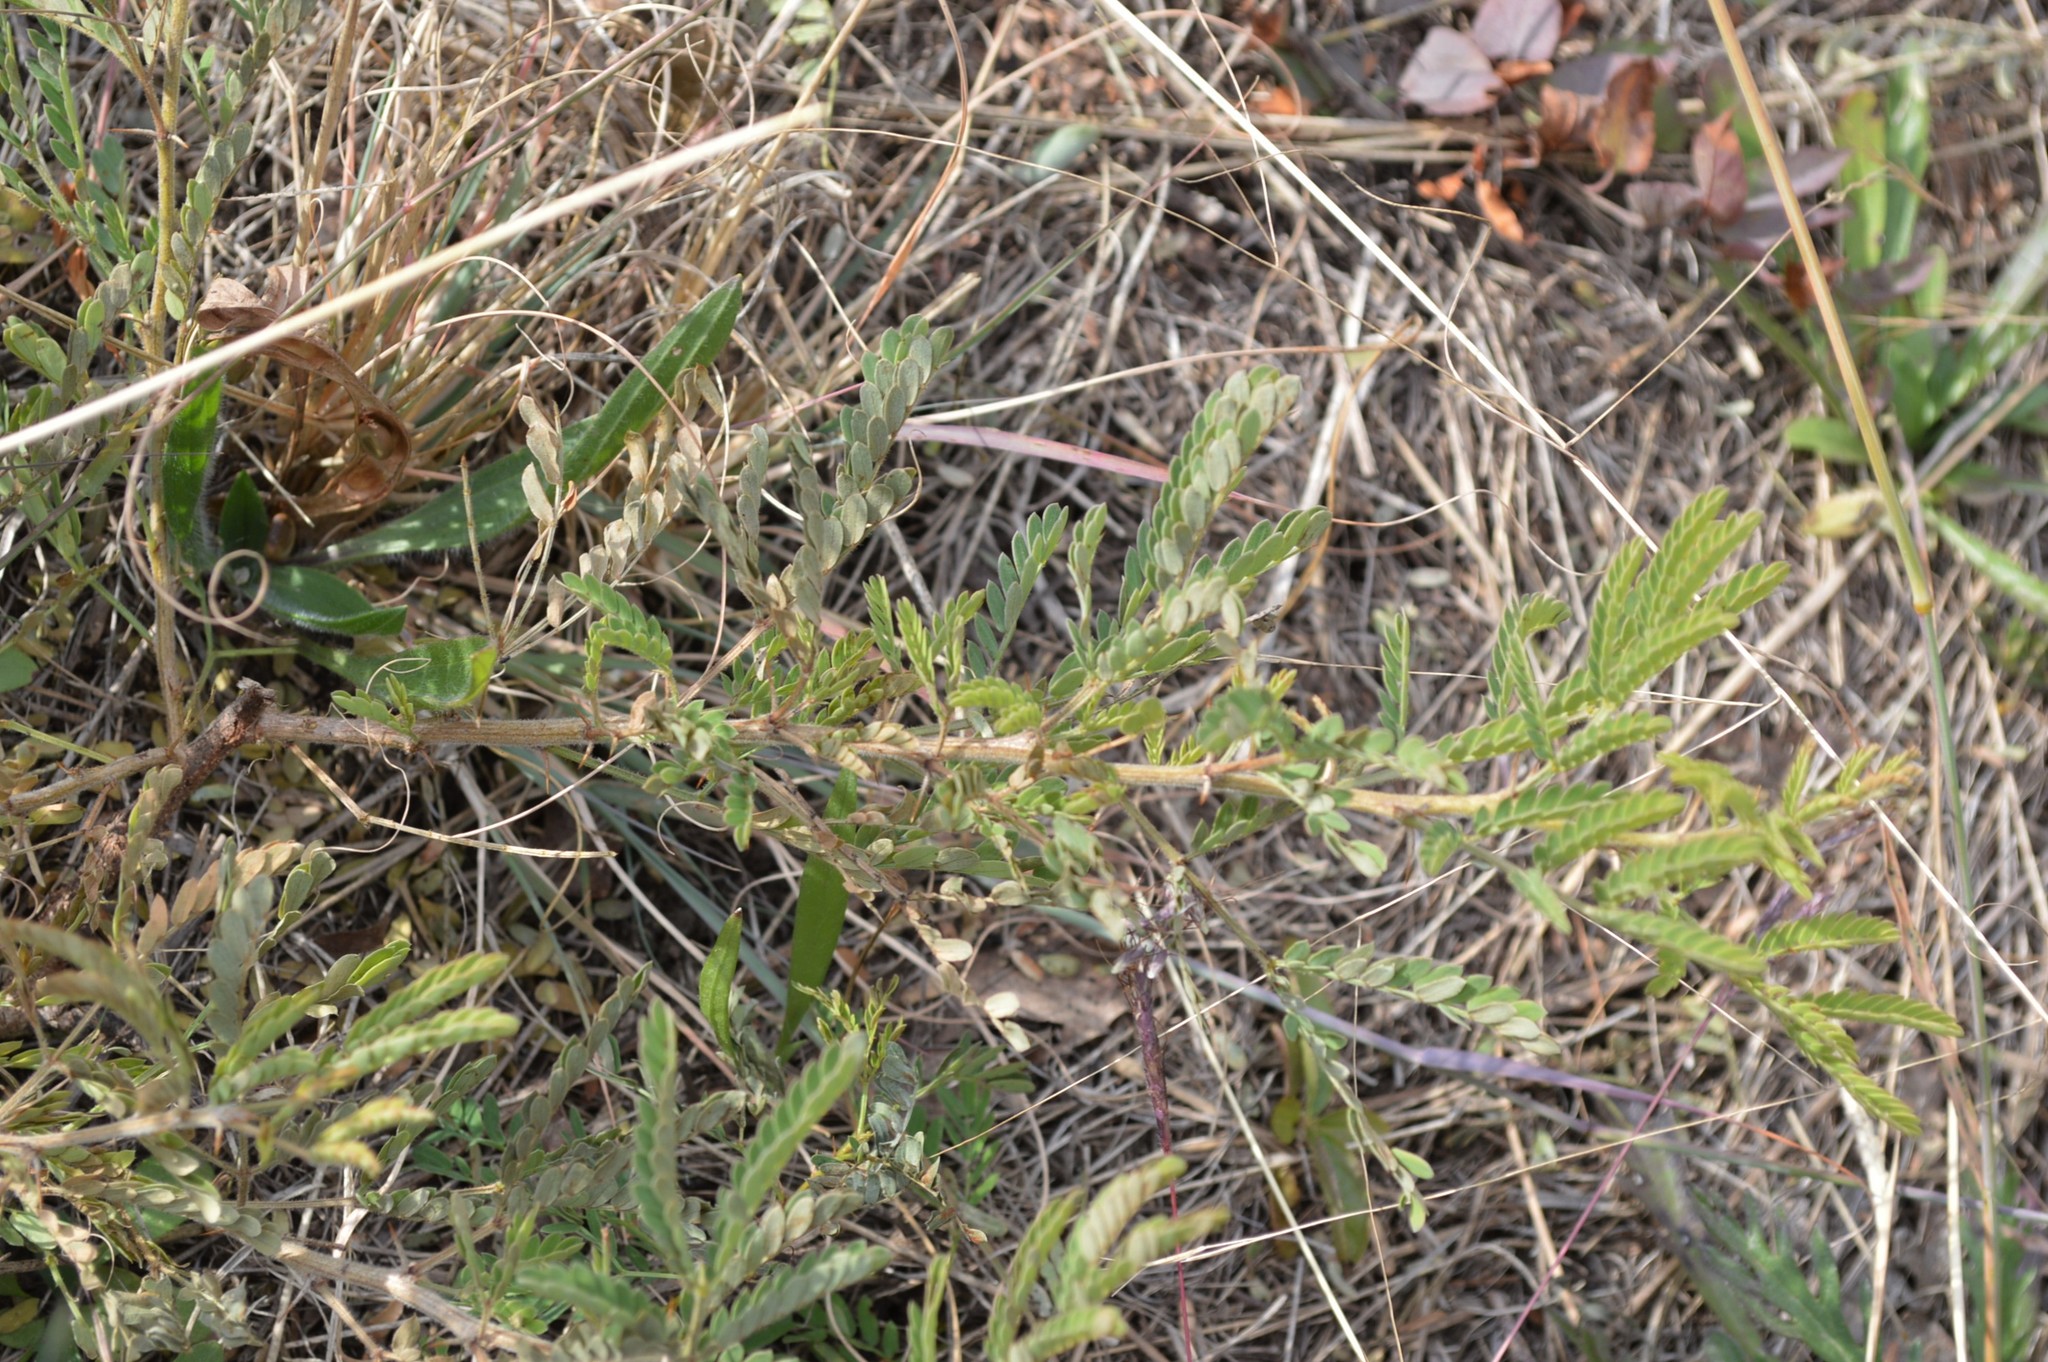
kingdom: Plantae
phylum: Tracheophyta
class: Magnoliopsida
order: Fabales
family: Fabaceae
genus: Vachellia
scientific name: Vachellia karroo
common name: Sweet thorn
